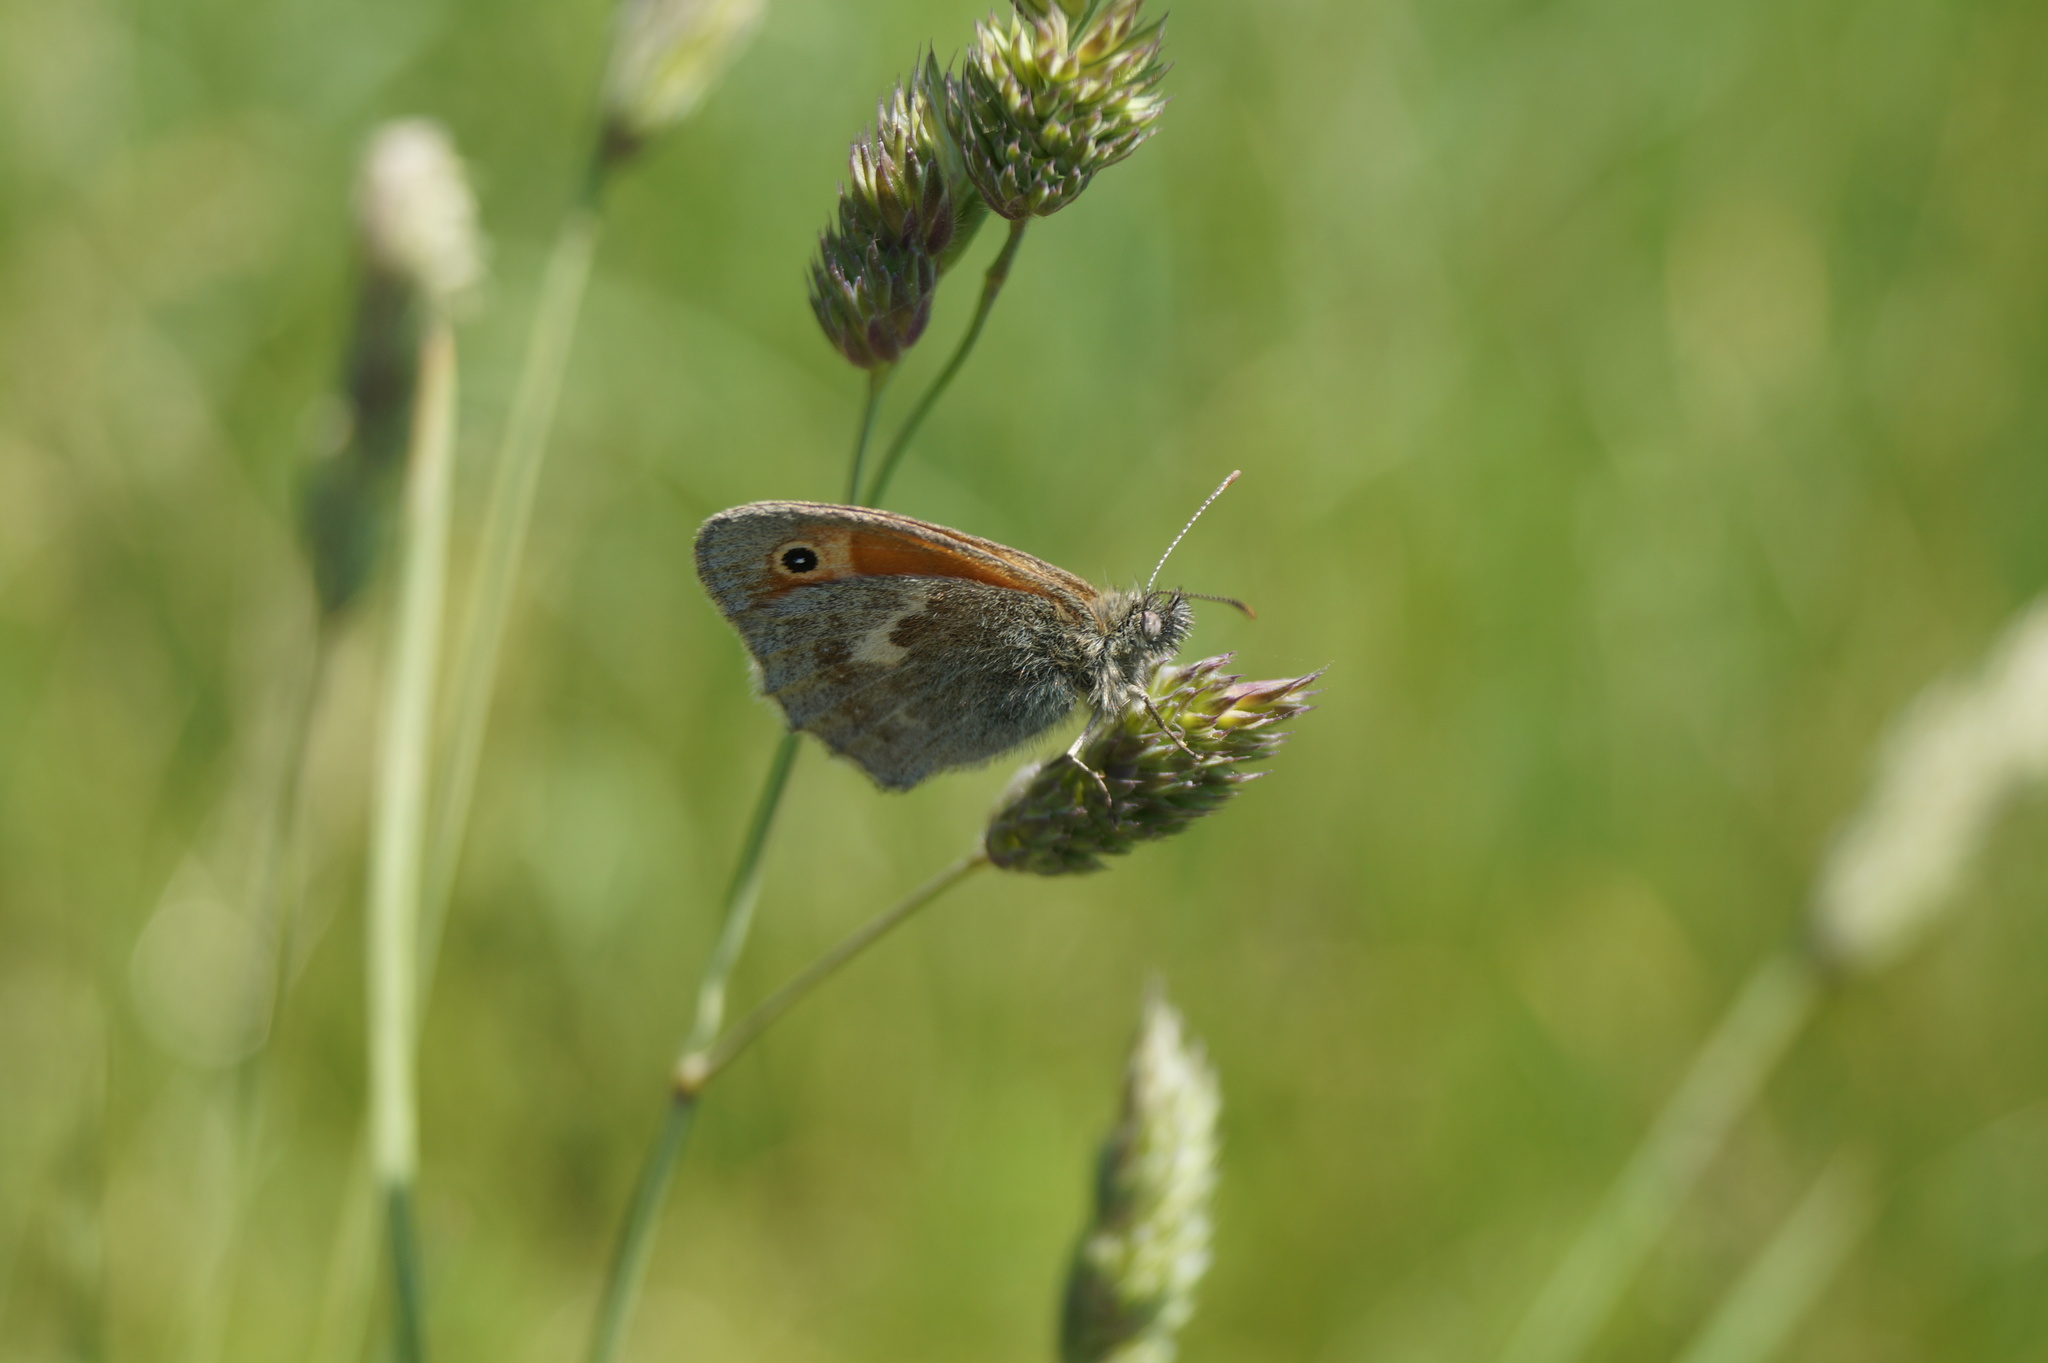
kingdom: Animalia
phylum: Arthropoda
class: Insecta
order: Lepidoptera
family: Nymphalidae
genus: Coenonympha
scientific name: Coenonympha pamphilus
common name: Small heath
